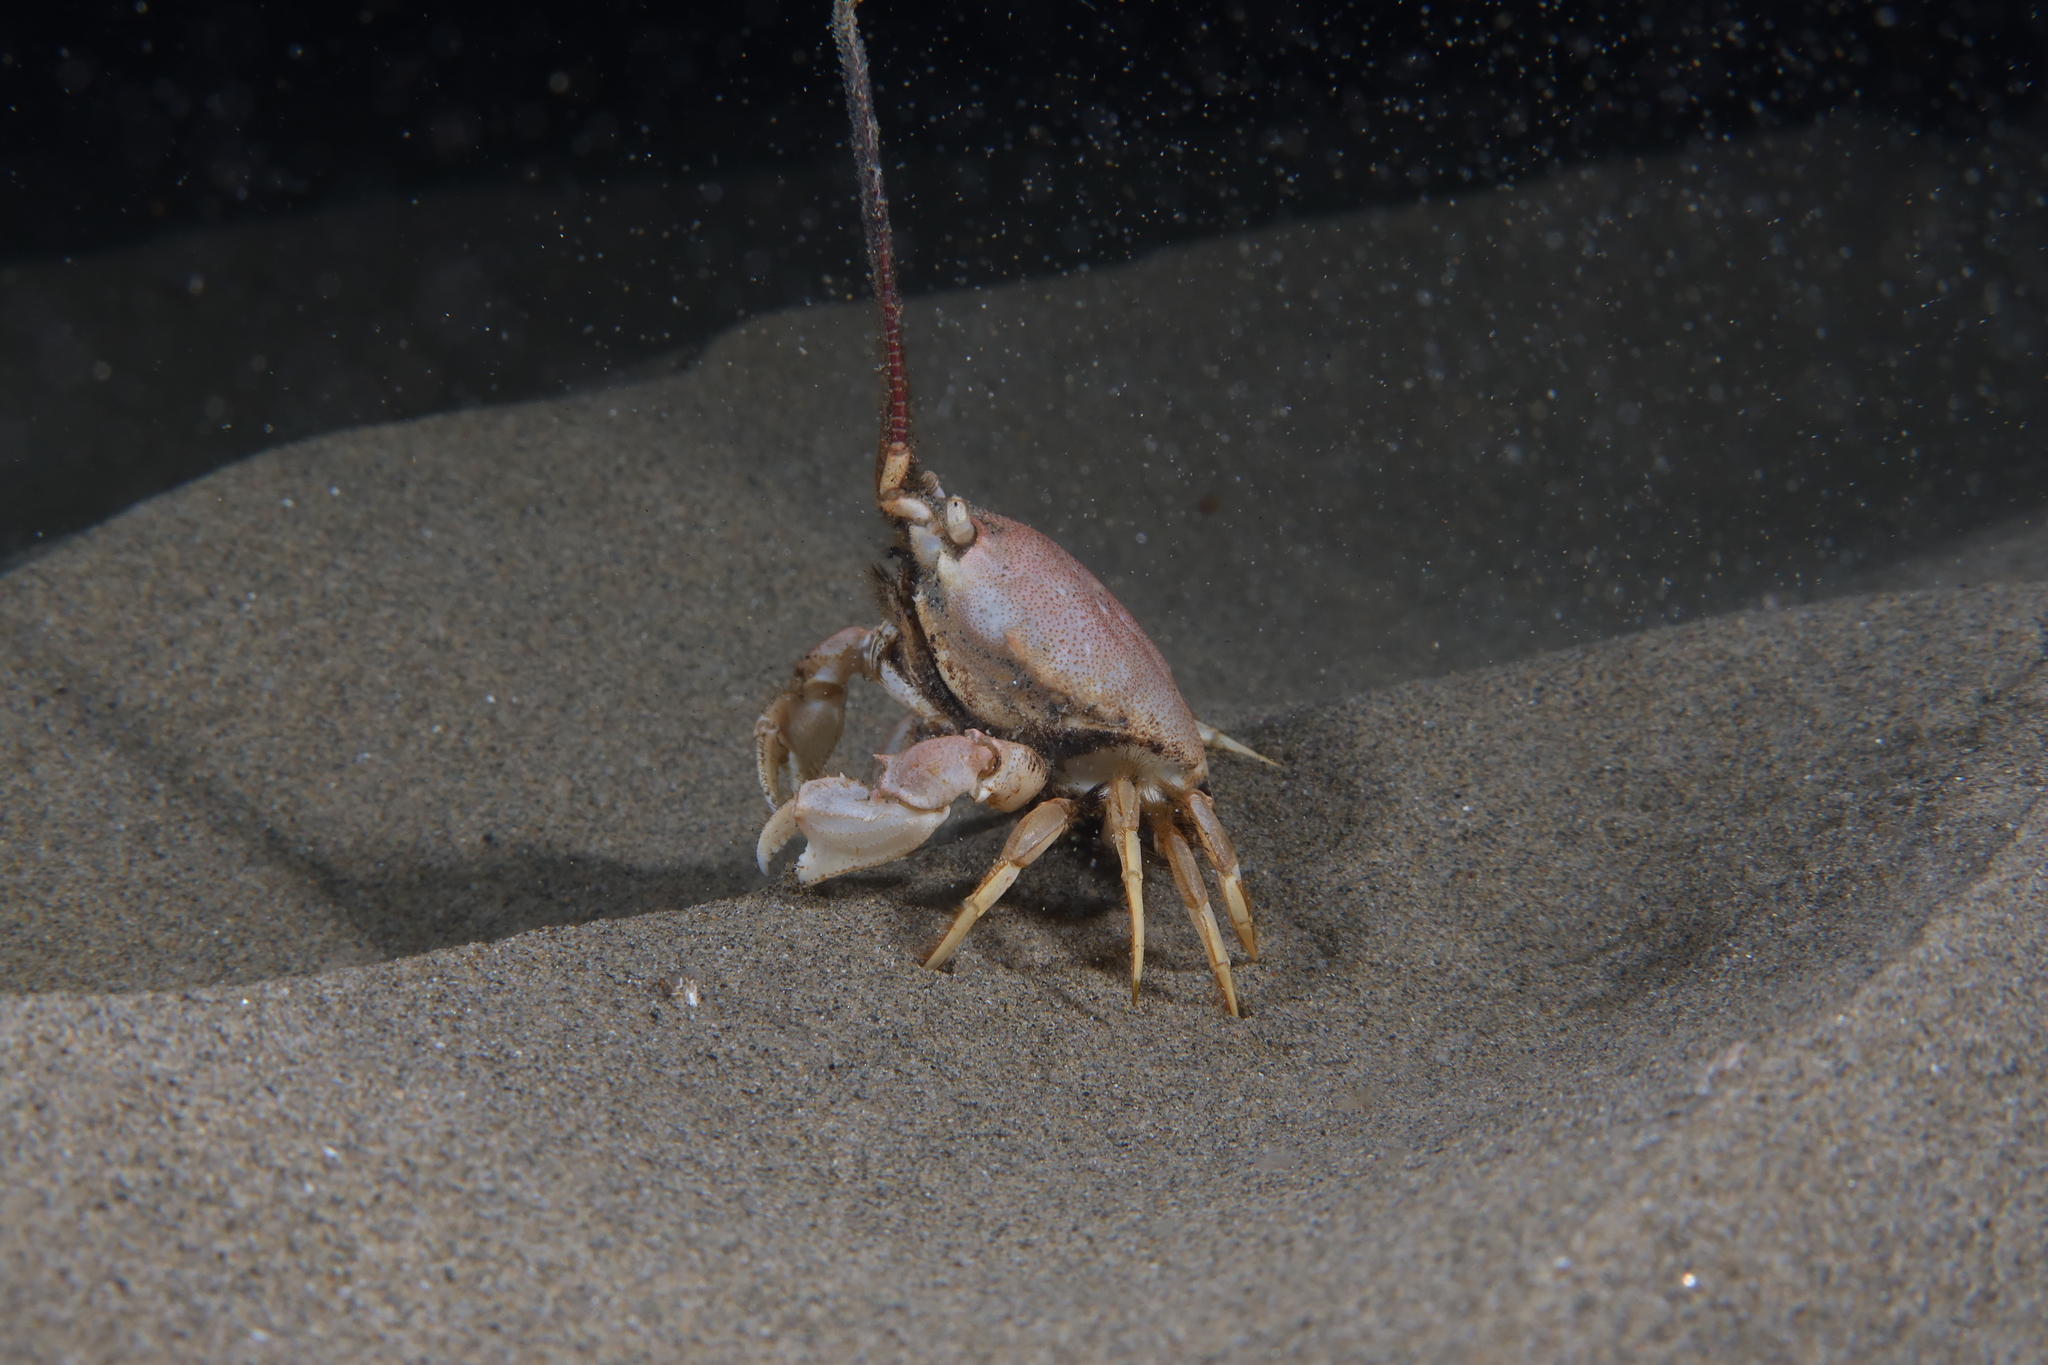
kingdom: Animalia
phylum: Arthropoda
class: Malacostraca
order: Decapoda
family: Corystidae
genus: Corystes
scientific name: Corystes cassivelaunus
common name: Masked crab
